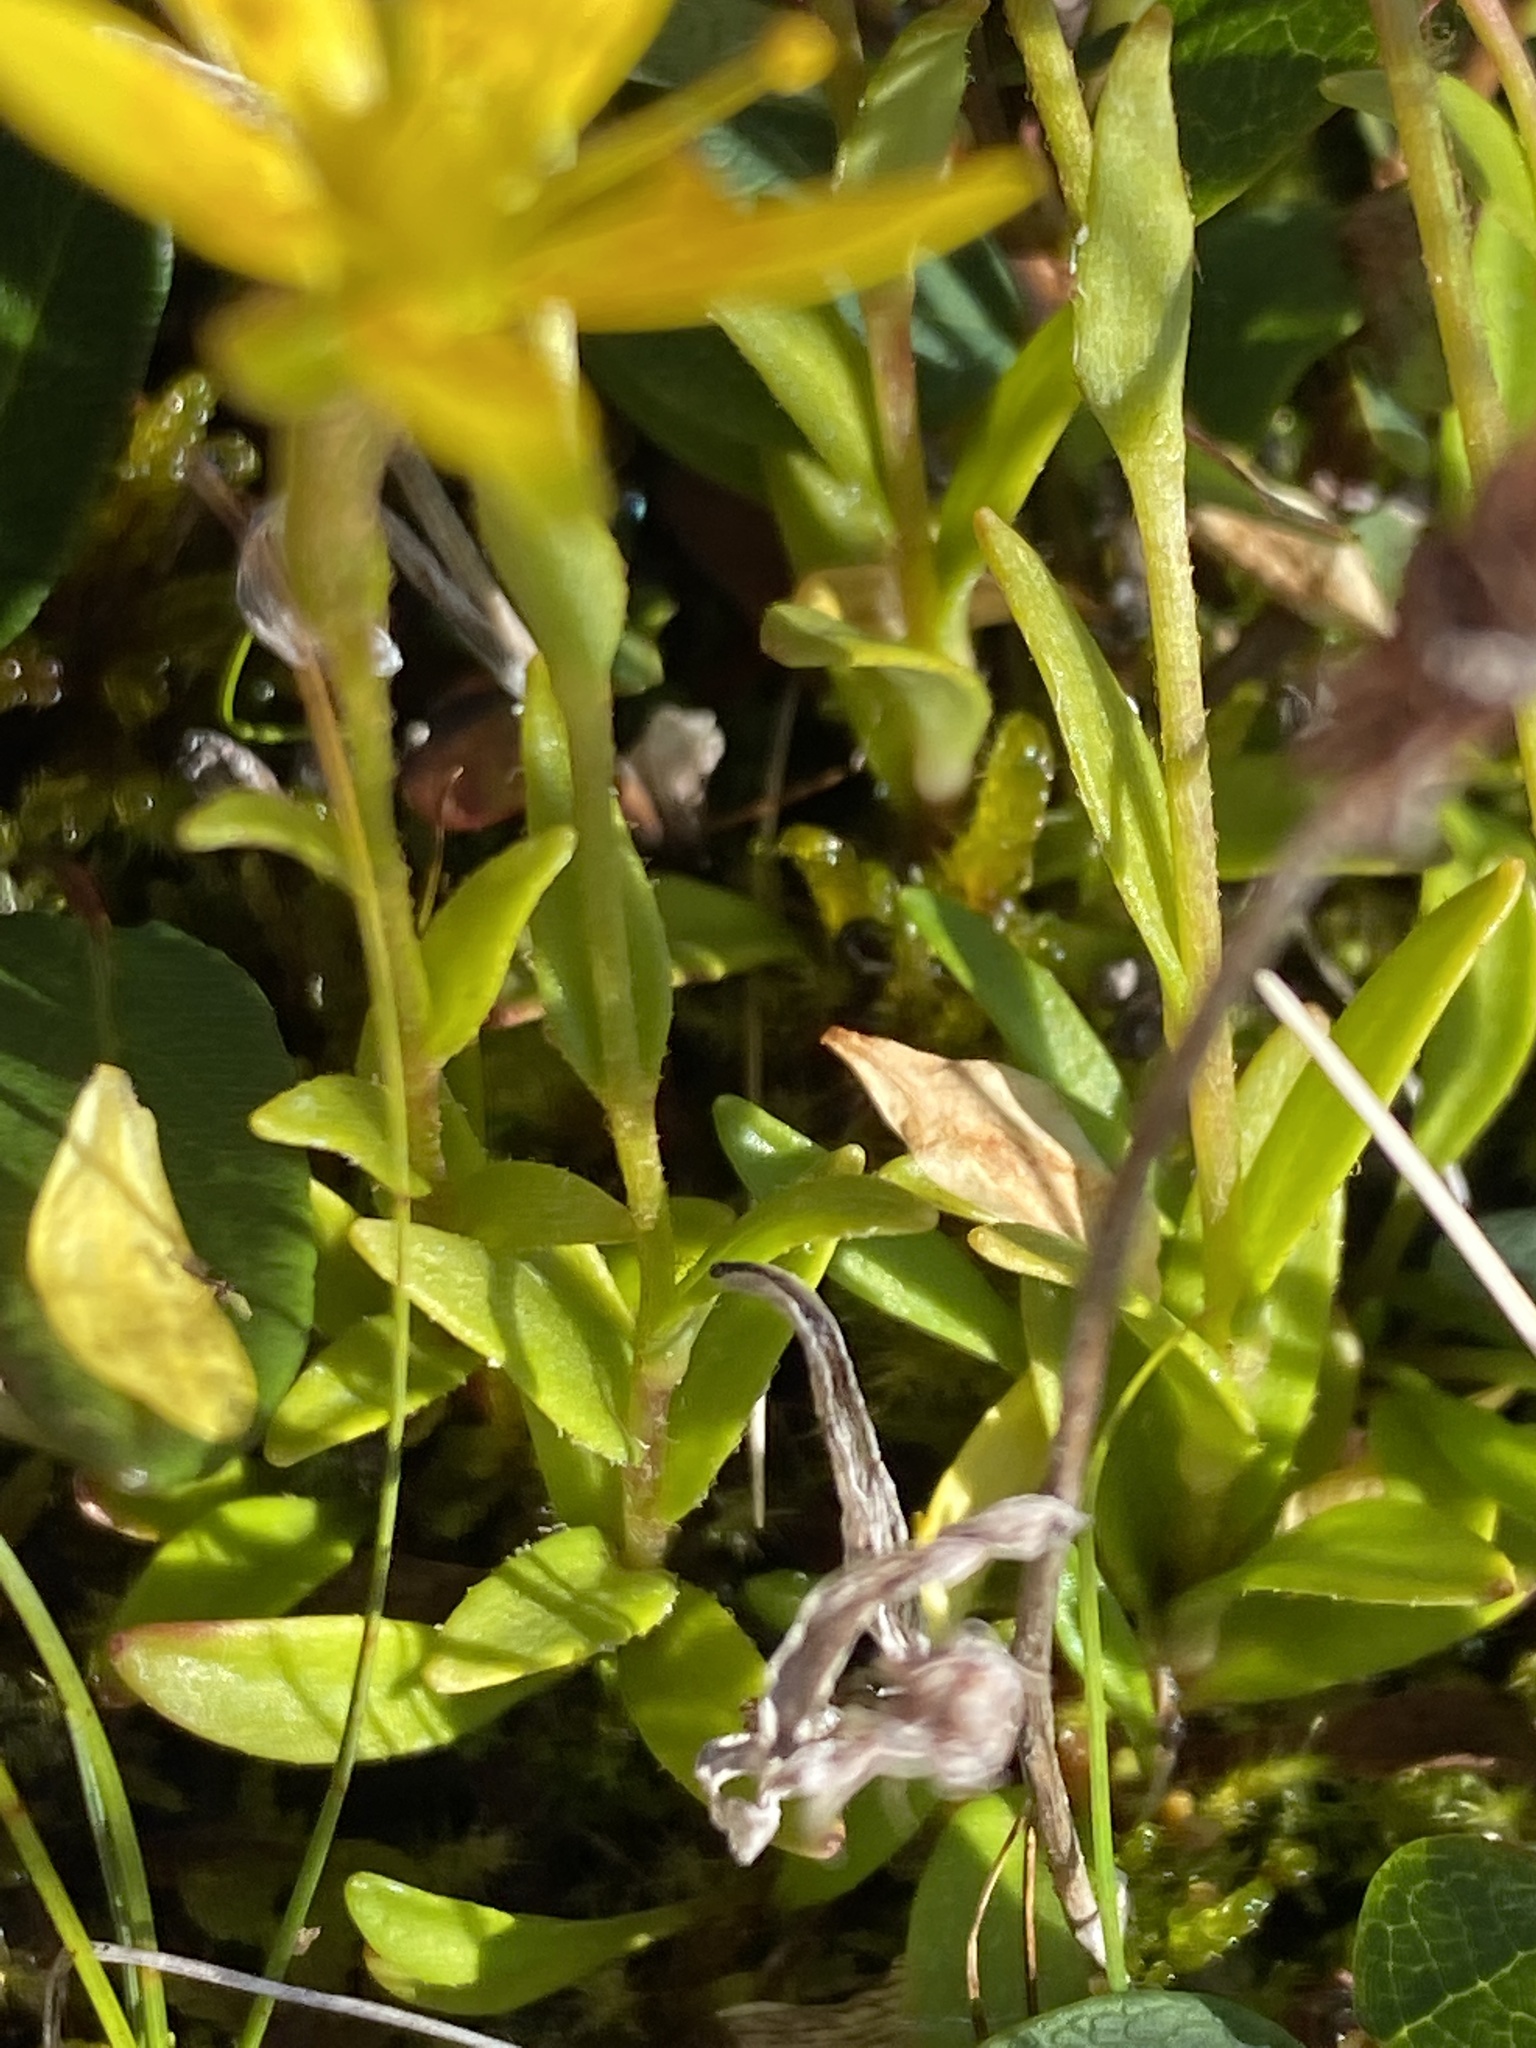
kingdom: Plantae
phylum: Tracheophyta
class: Magnoliopsida
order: Saxifragales
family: Saxifragaceae
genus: Saxifraga
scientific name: Saxifraga hirculus
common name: Yellow marsh saxifrage
